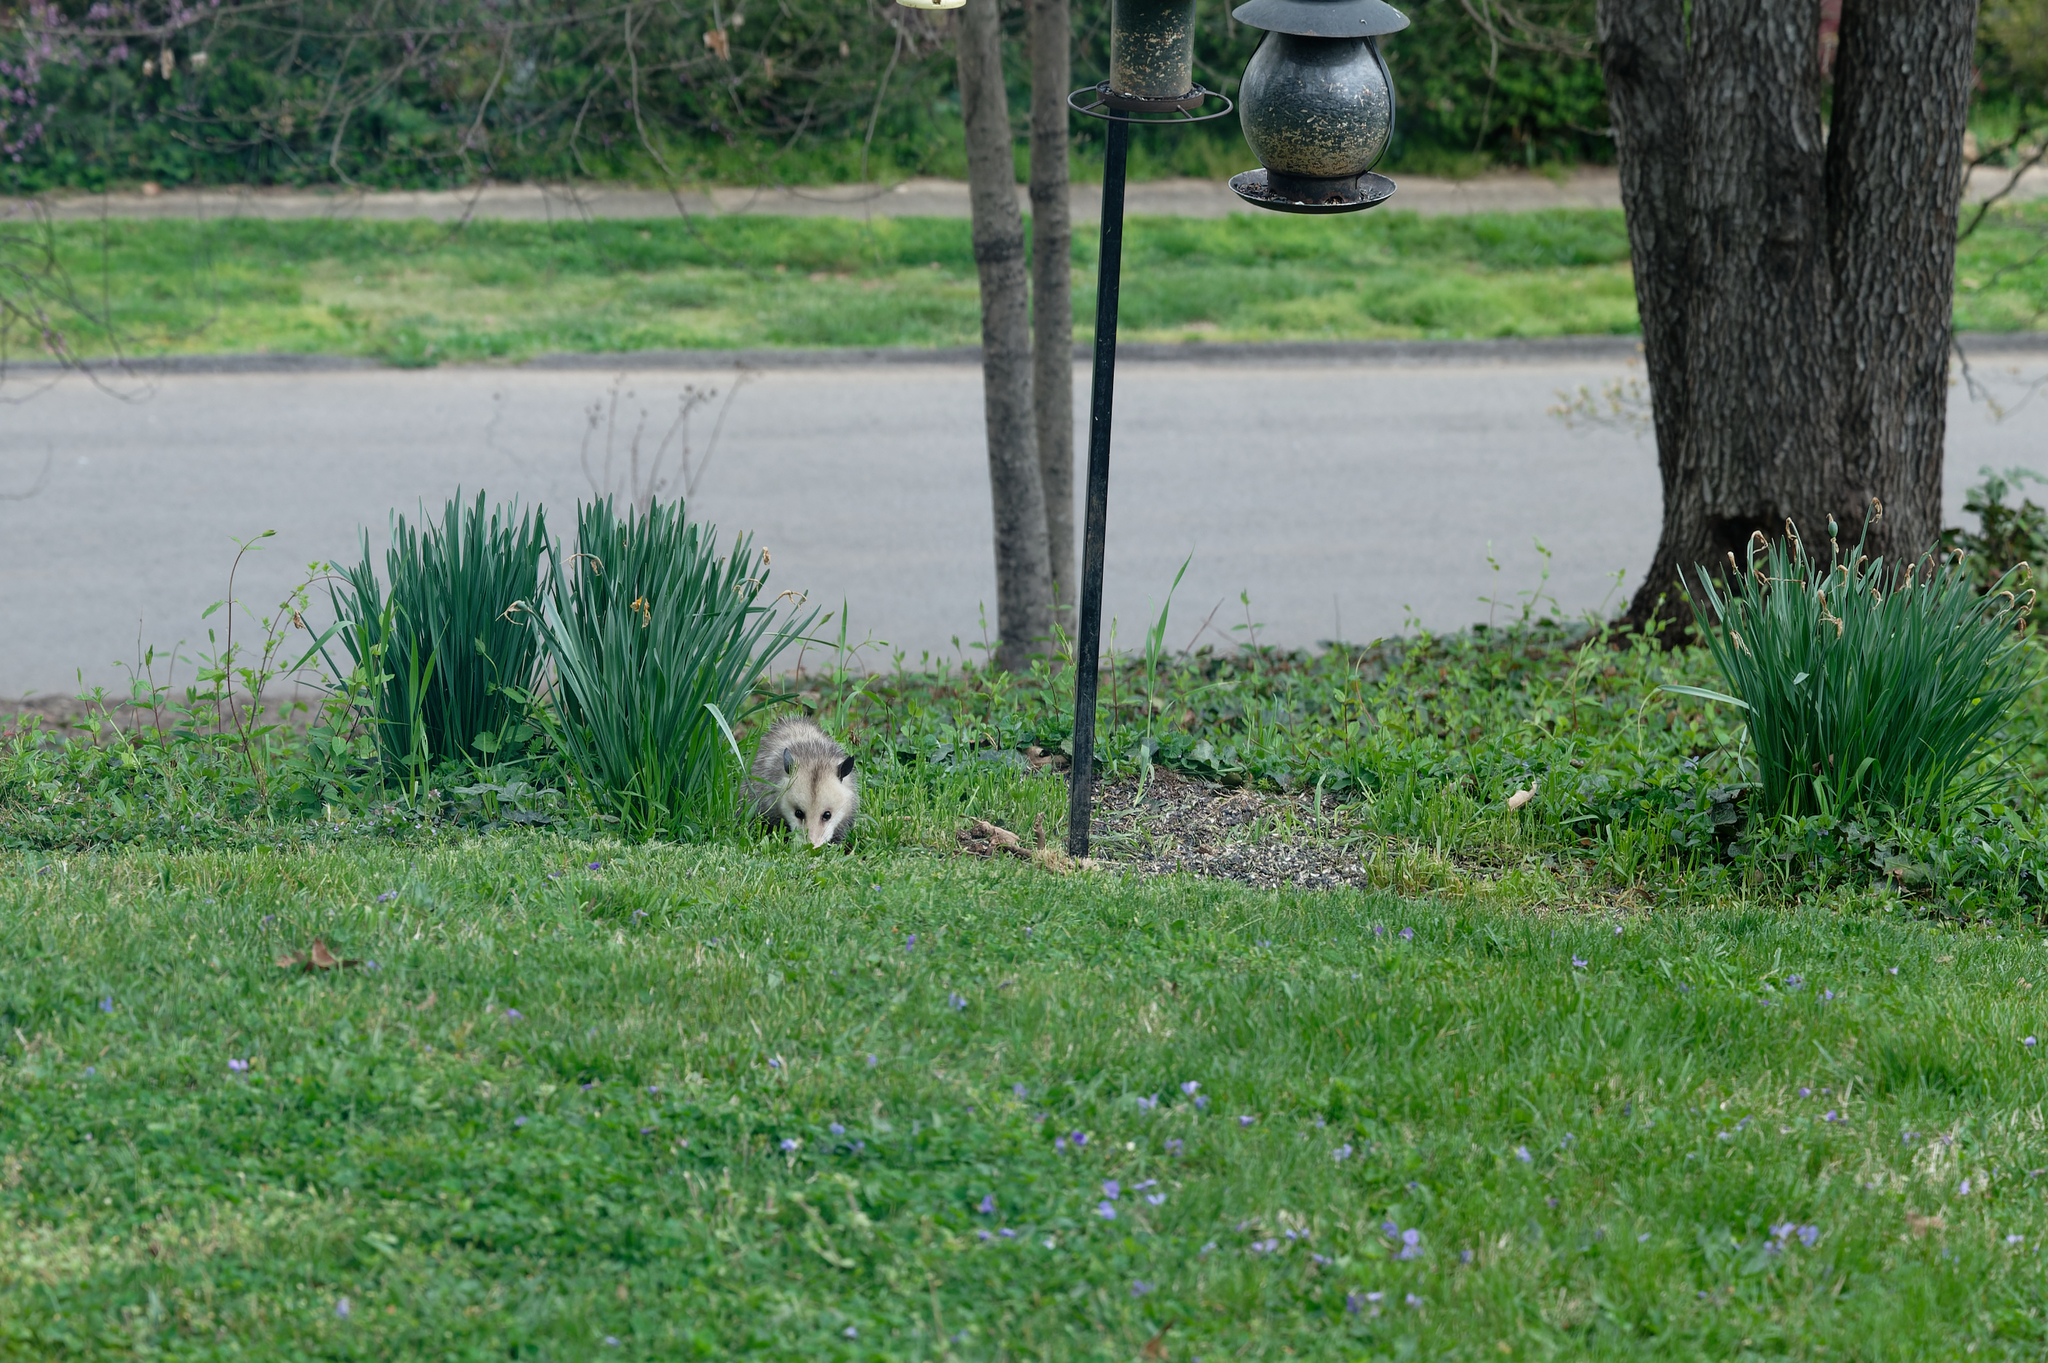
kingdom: Animalia
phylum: Chordata
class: Mammalia
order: Didelphimorphia
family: Didelphidae
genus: Didelphis
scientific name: Didelphis virginiana
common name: Virginia opossum
